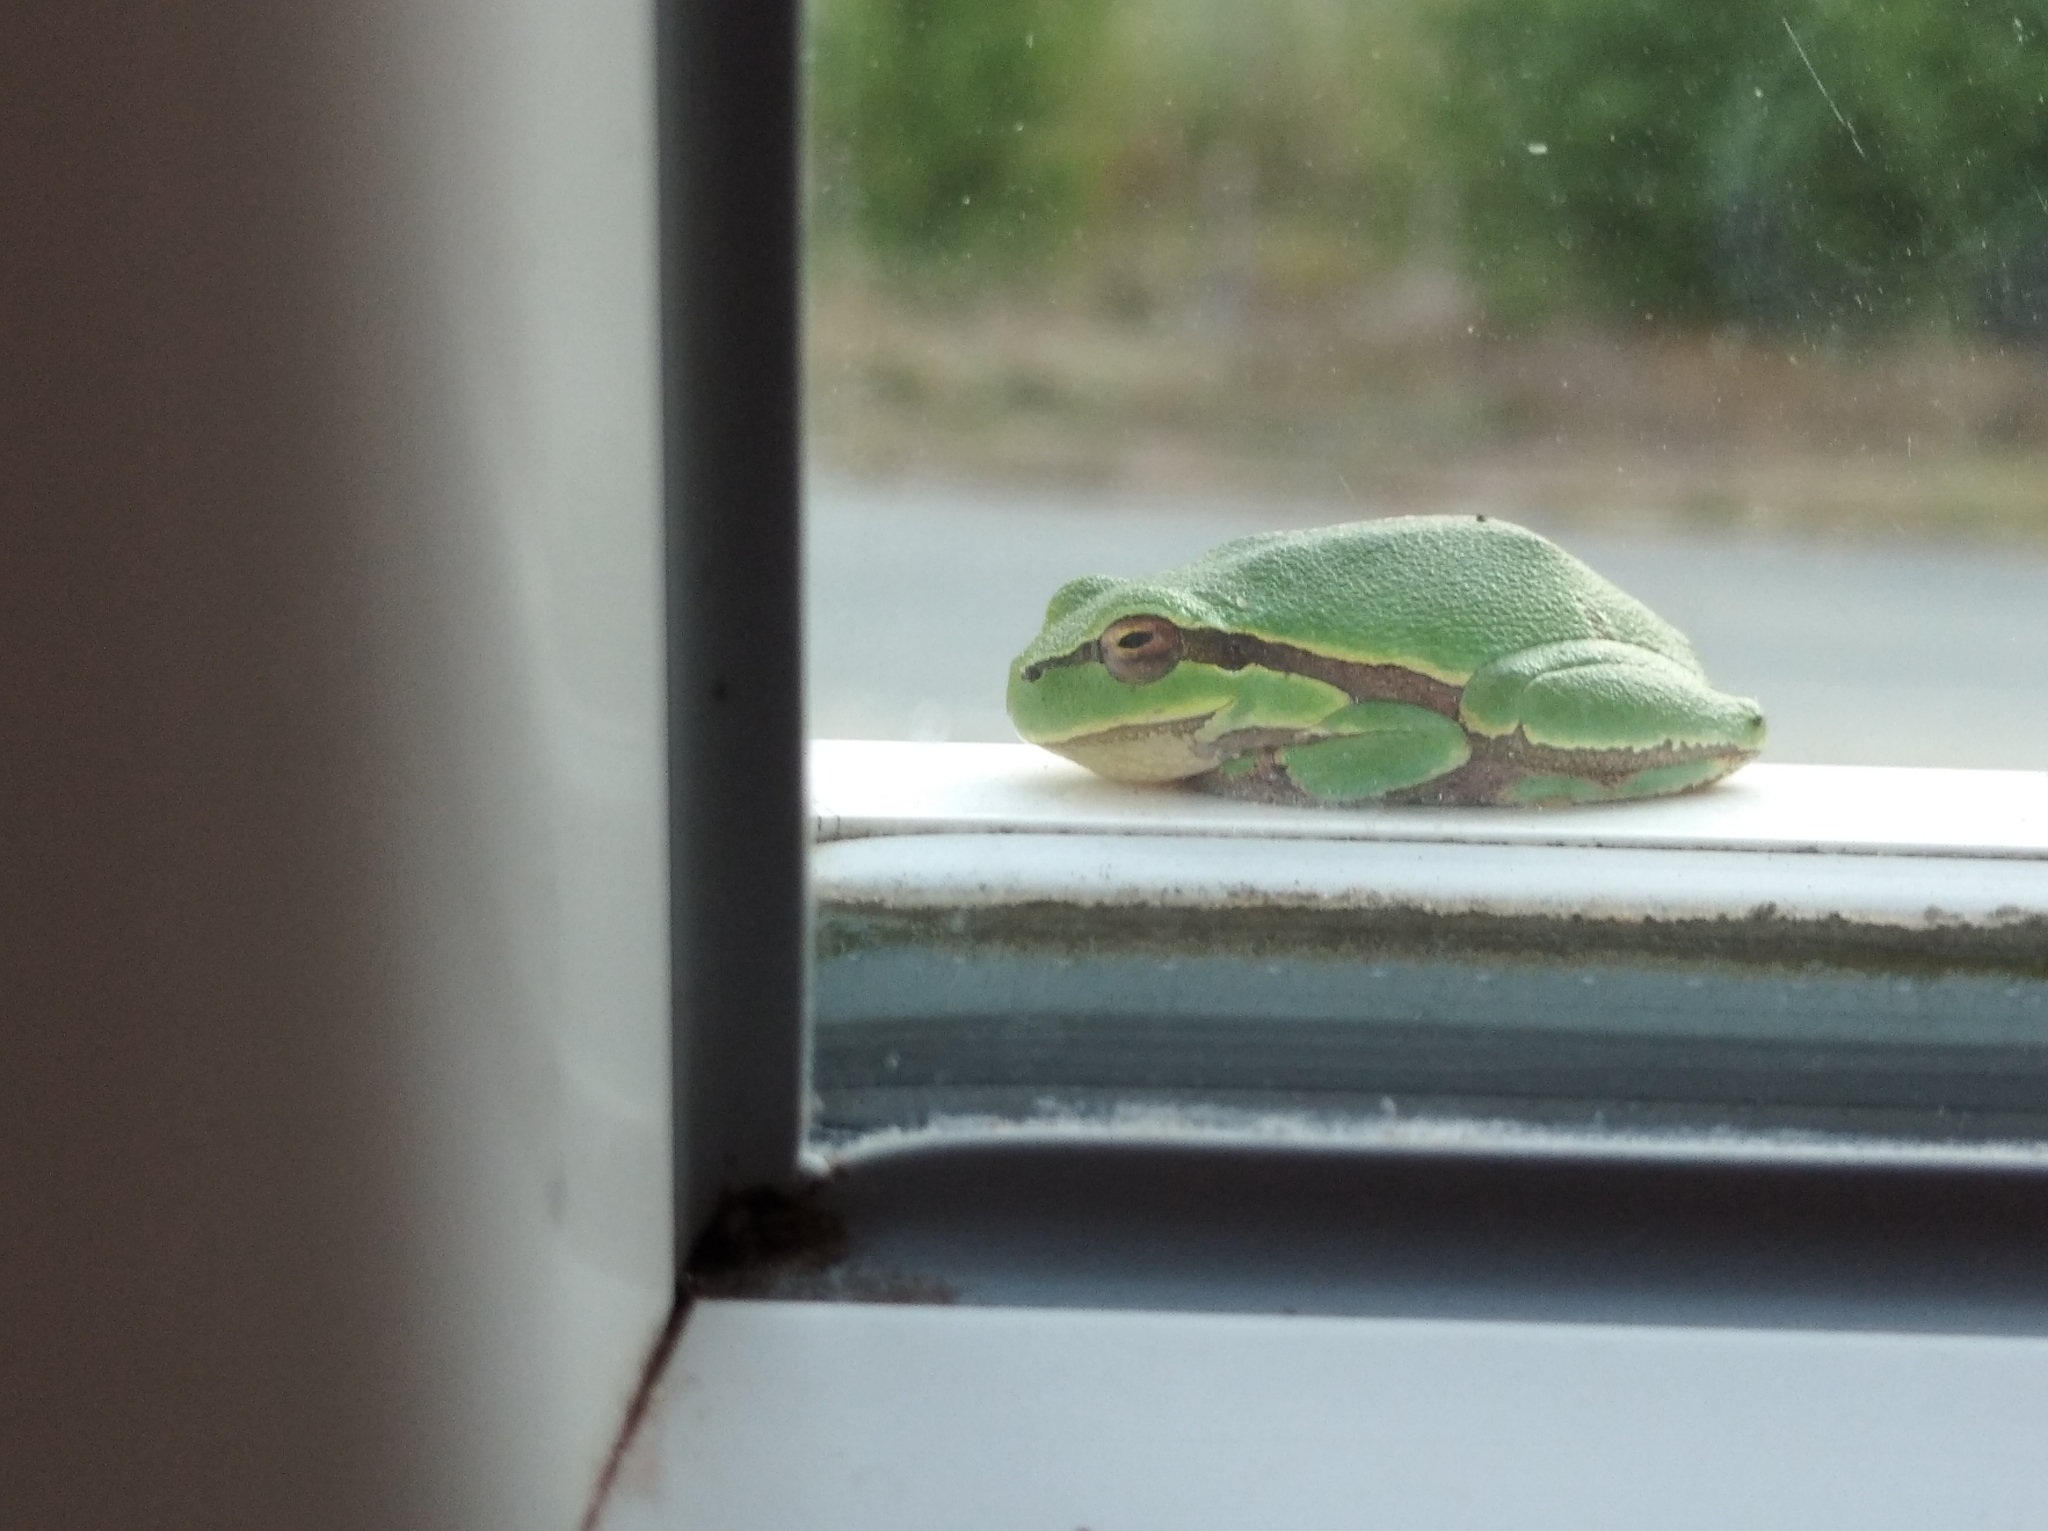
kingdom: Animalia
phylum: Chordata
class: Amphibia
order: Anura
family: Hylidae
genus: Hyla
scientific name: Hyla orientalis
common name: Caucasian treefrog
